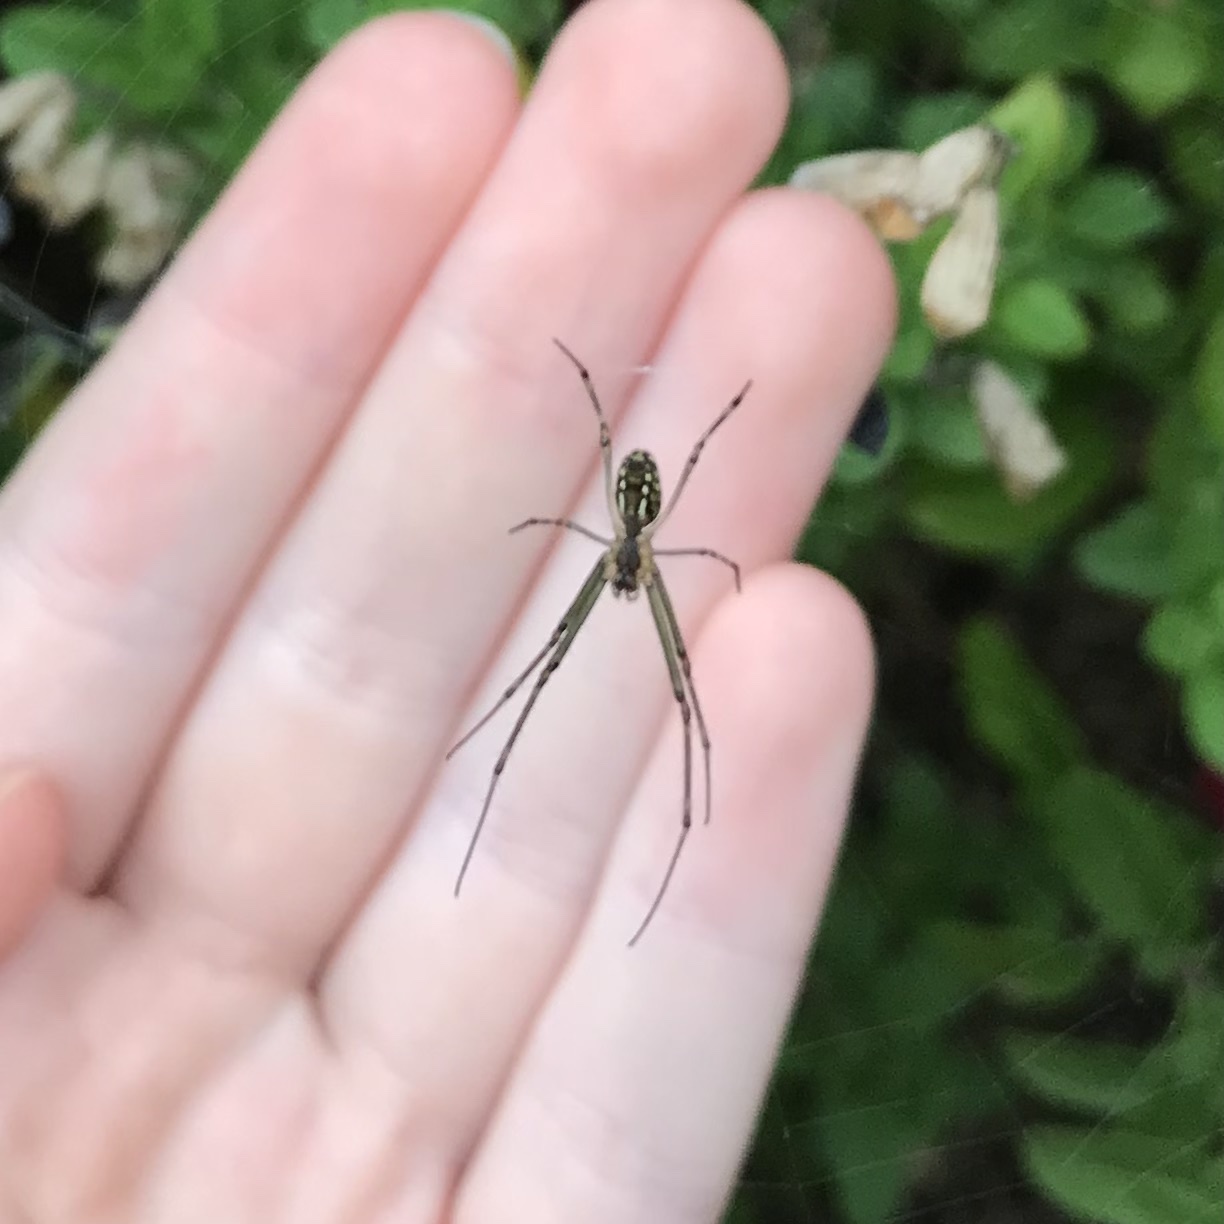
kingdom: Animalia
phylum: Arthropoda
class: Arachnida
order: Araneae
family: Tetragnathidae
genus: Leucauge
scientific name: Leucauge dromedaria
